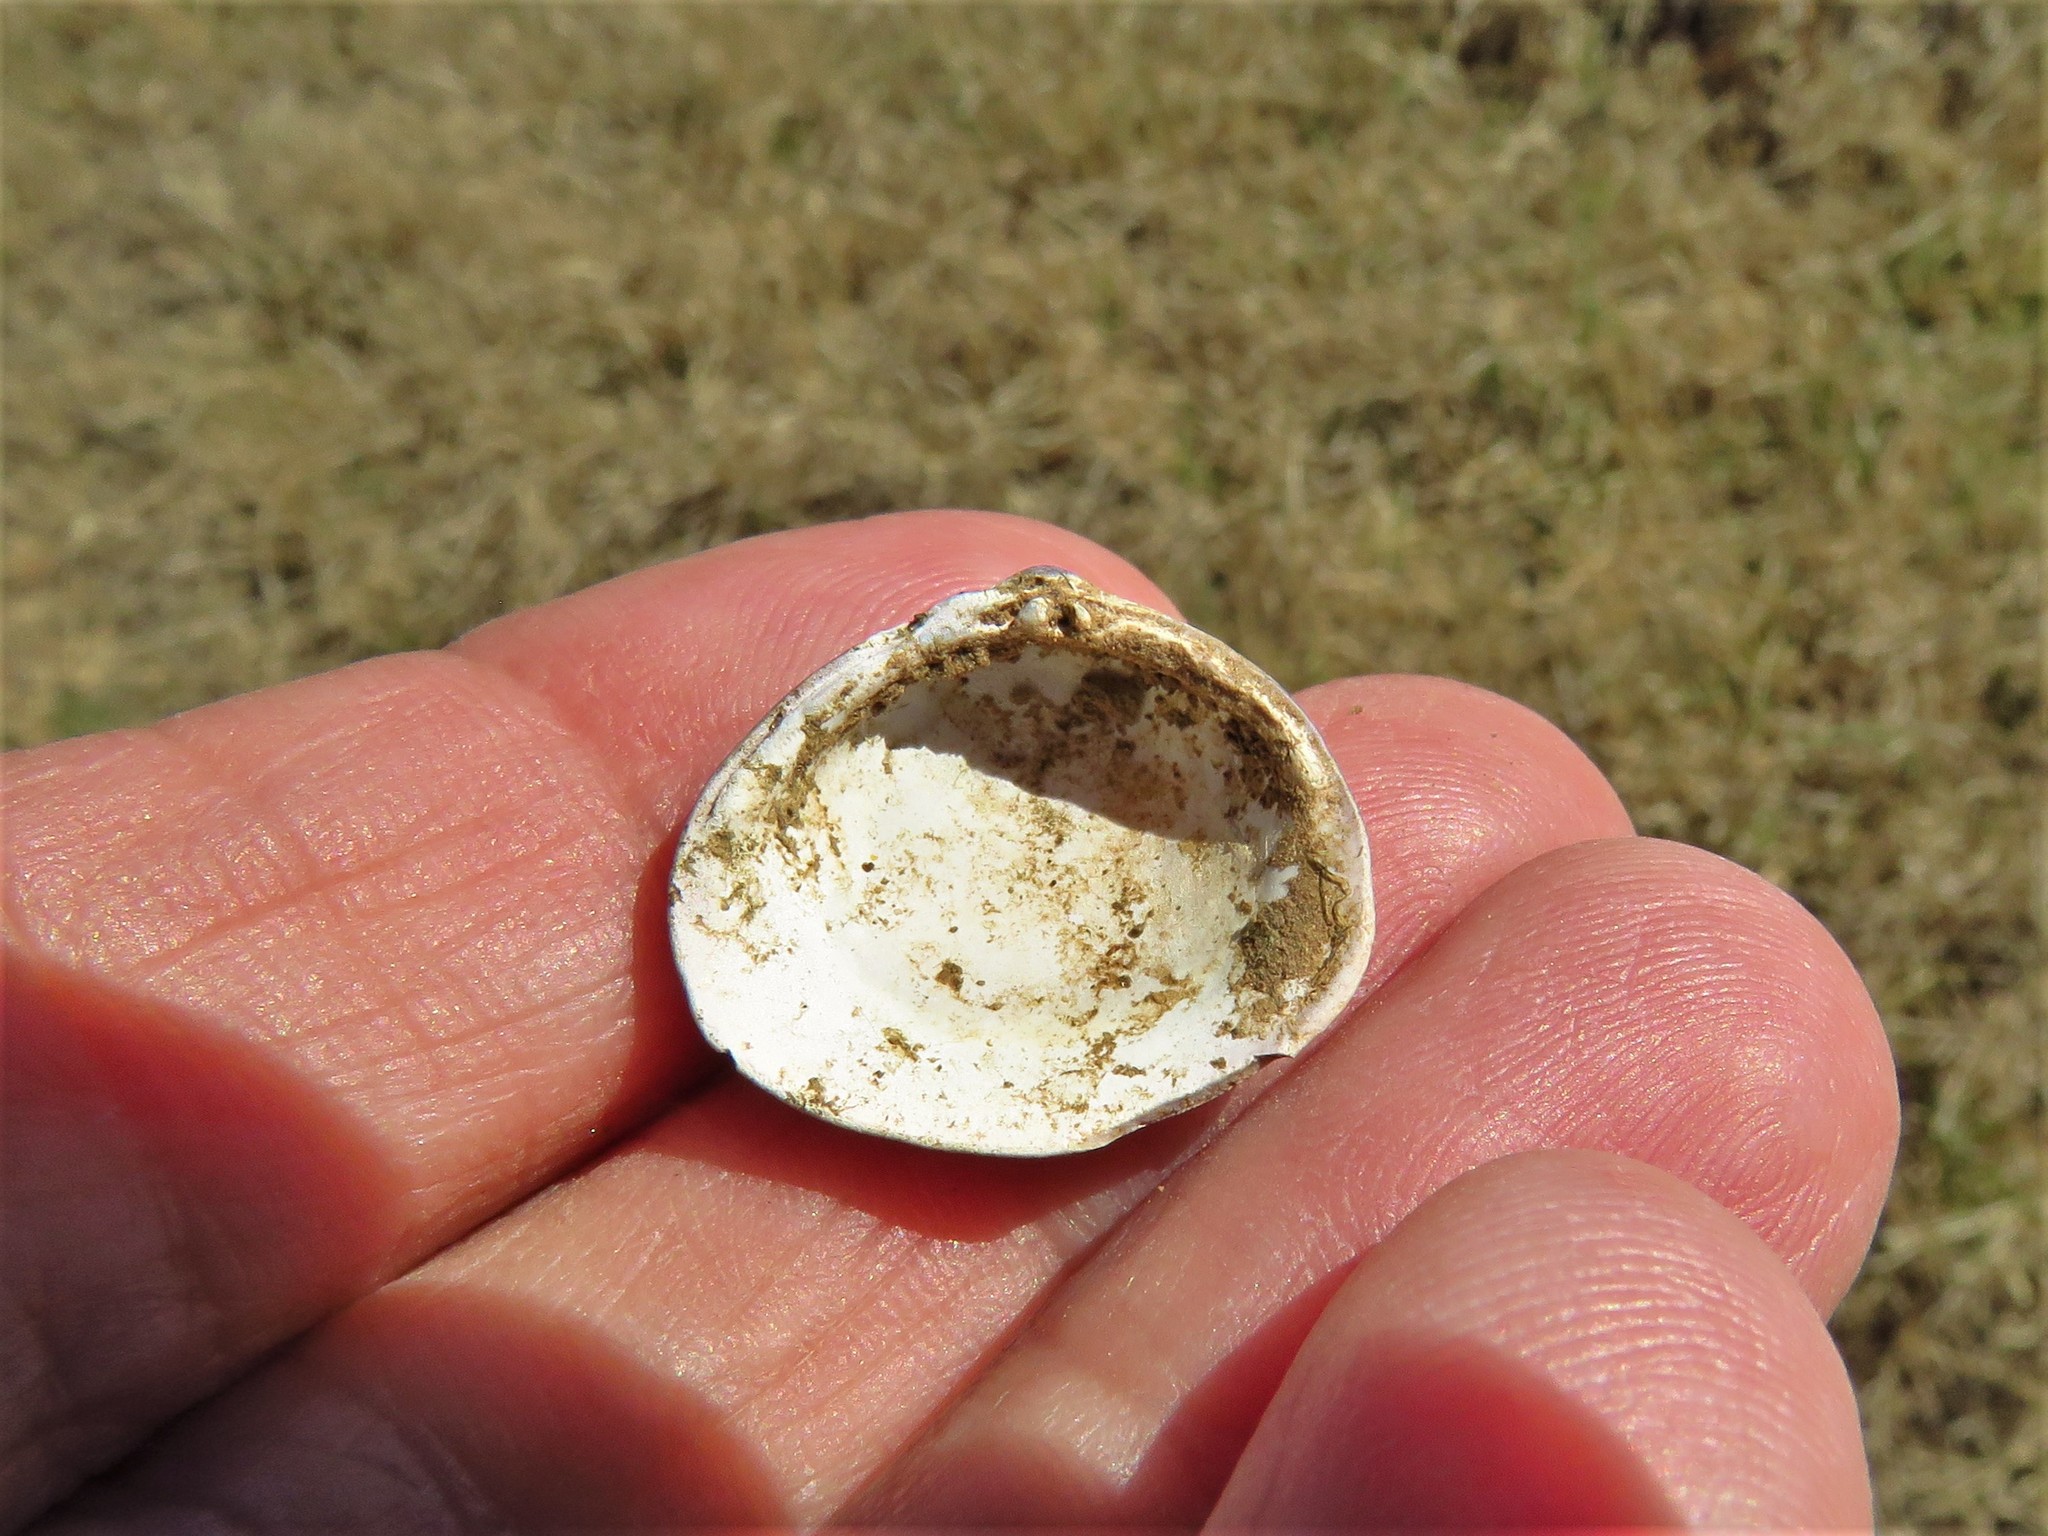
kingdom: Animalia
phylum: Mollusca
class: Bivalvia
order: Venerida
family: Cyrenidae
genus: Corbicula
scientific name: Corbicula fluminea
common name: Asian clam
